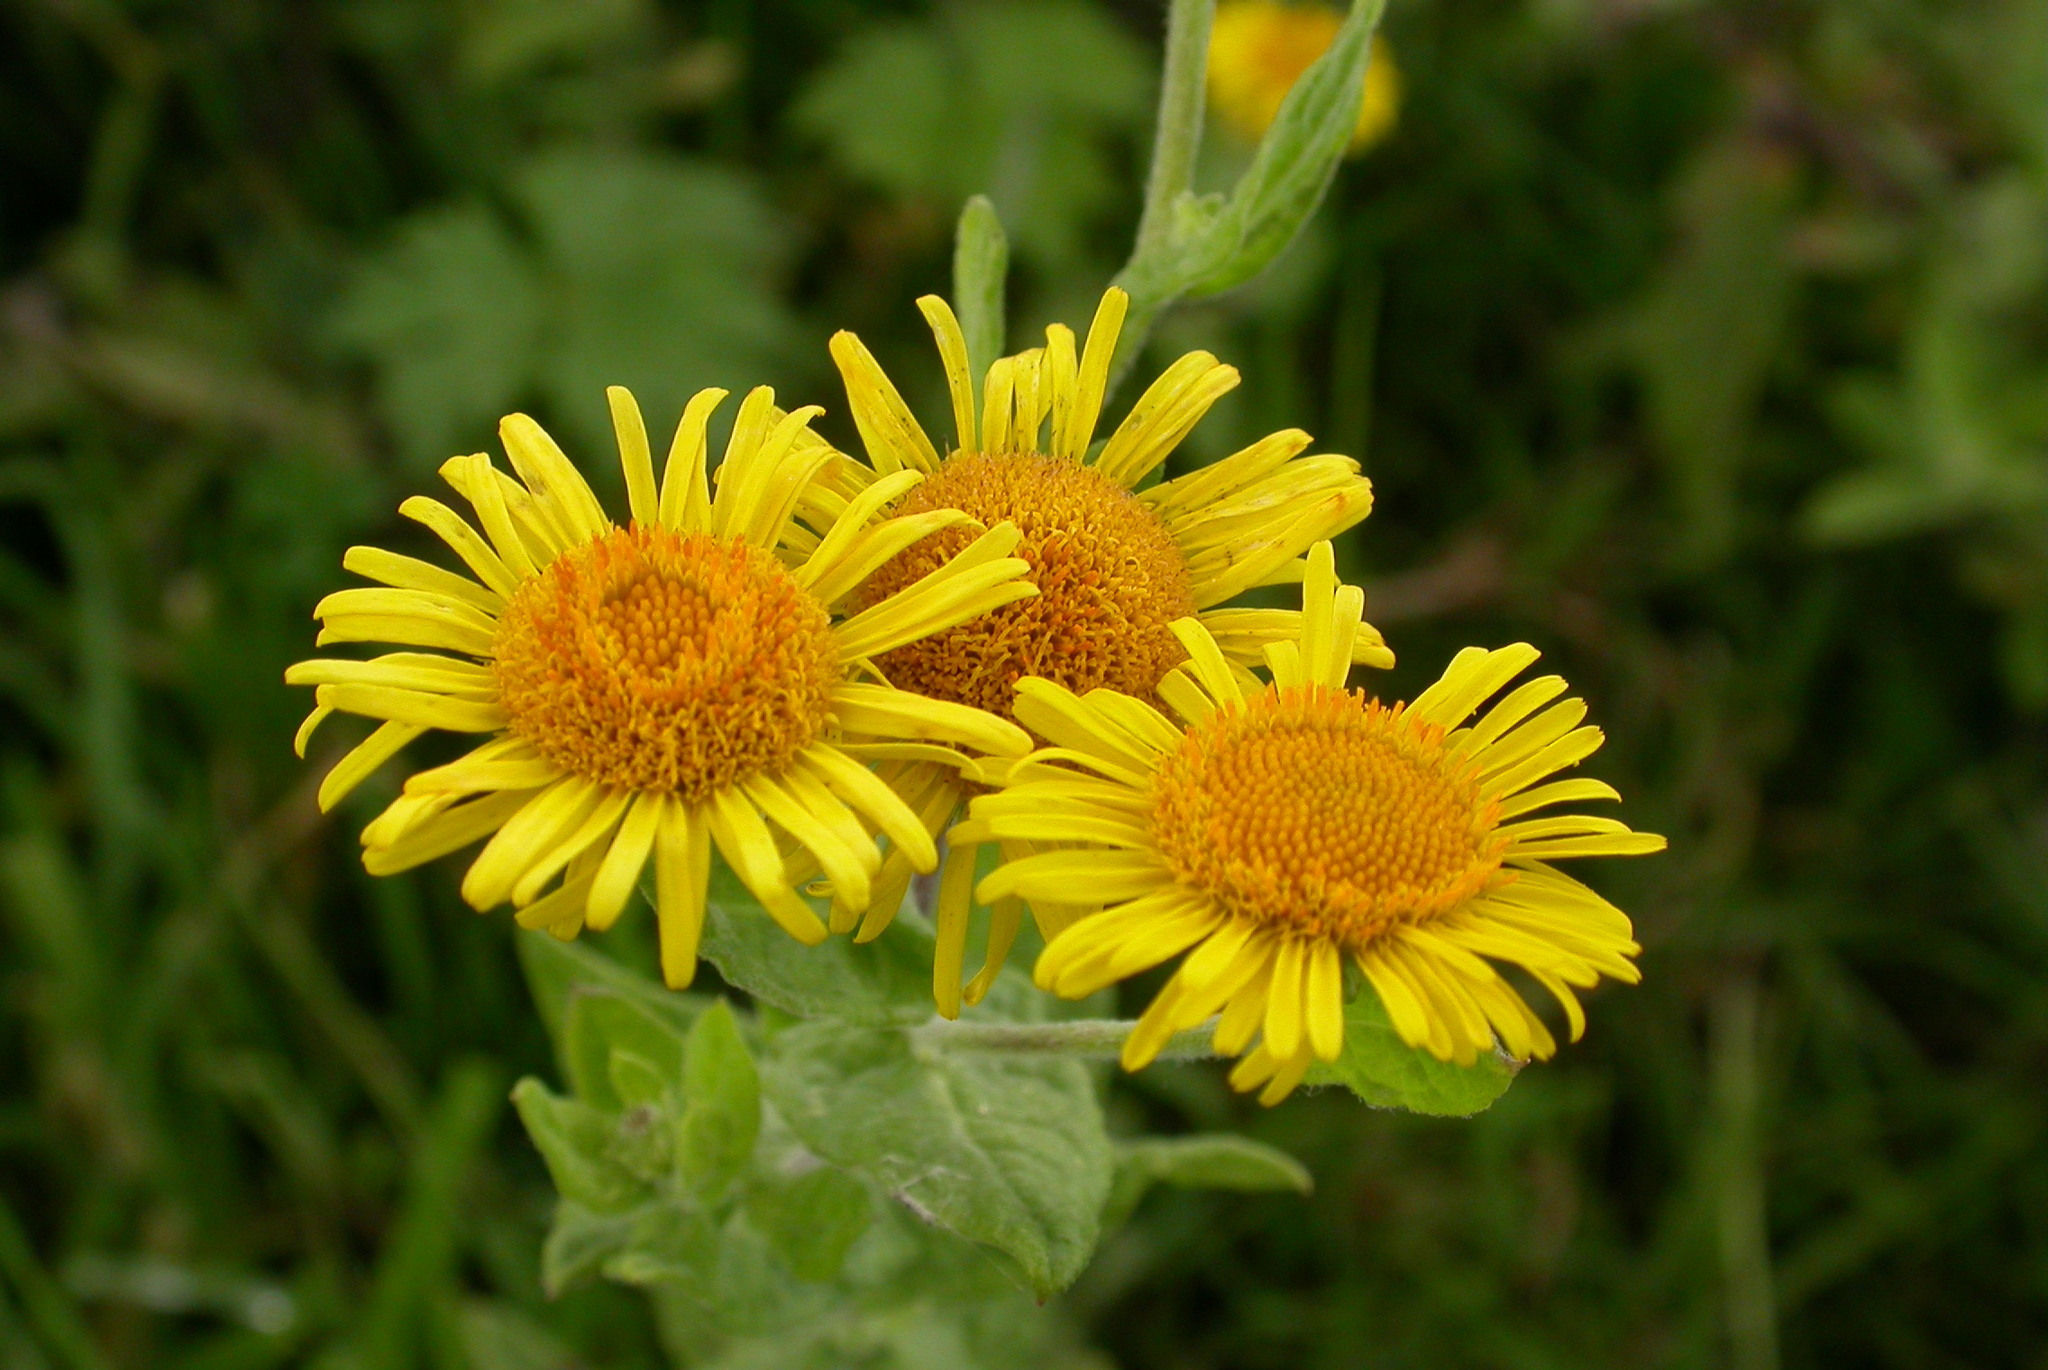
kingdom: Plantae
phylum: Tracheophyta
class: Magnoliopsida
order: Asterales
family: Asteraceae
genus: Pulicaria
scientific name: Pulicaria dysenterica
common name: Common fleabane
